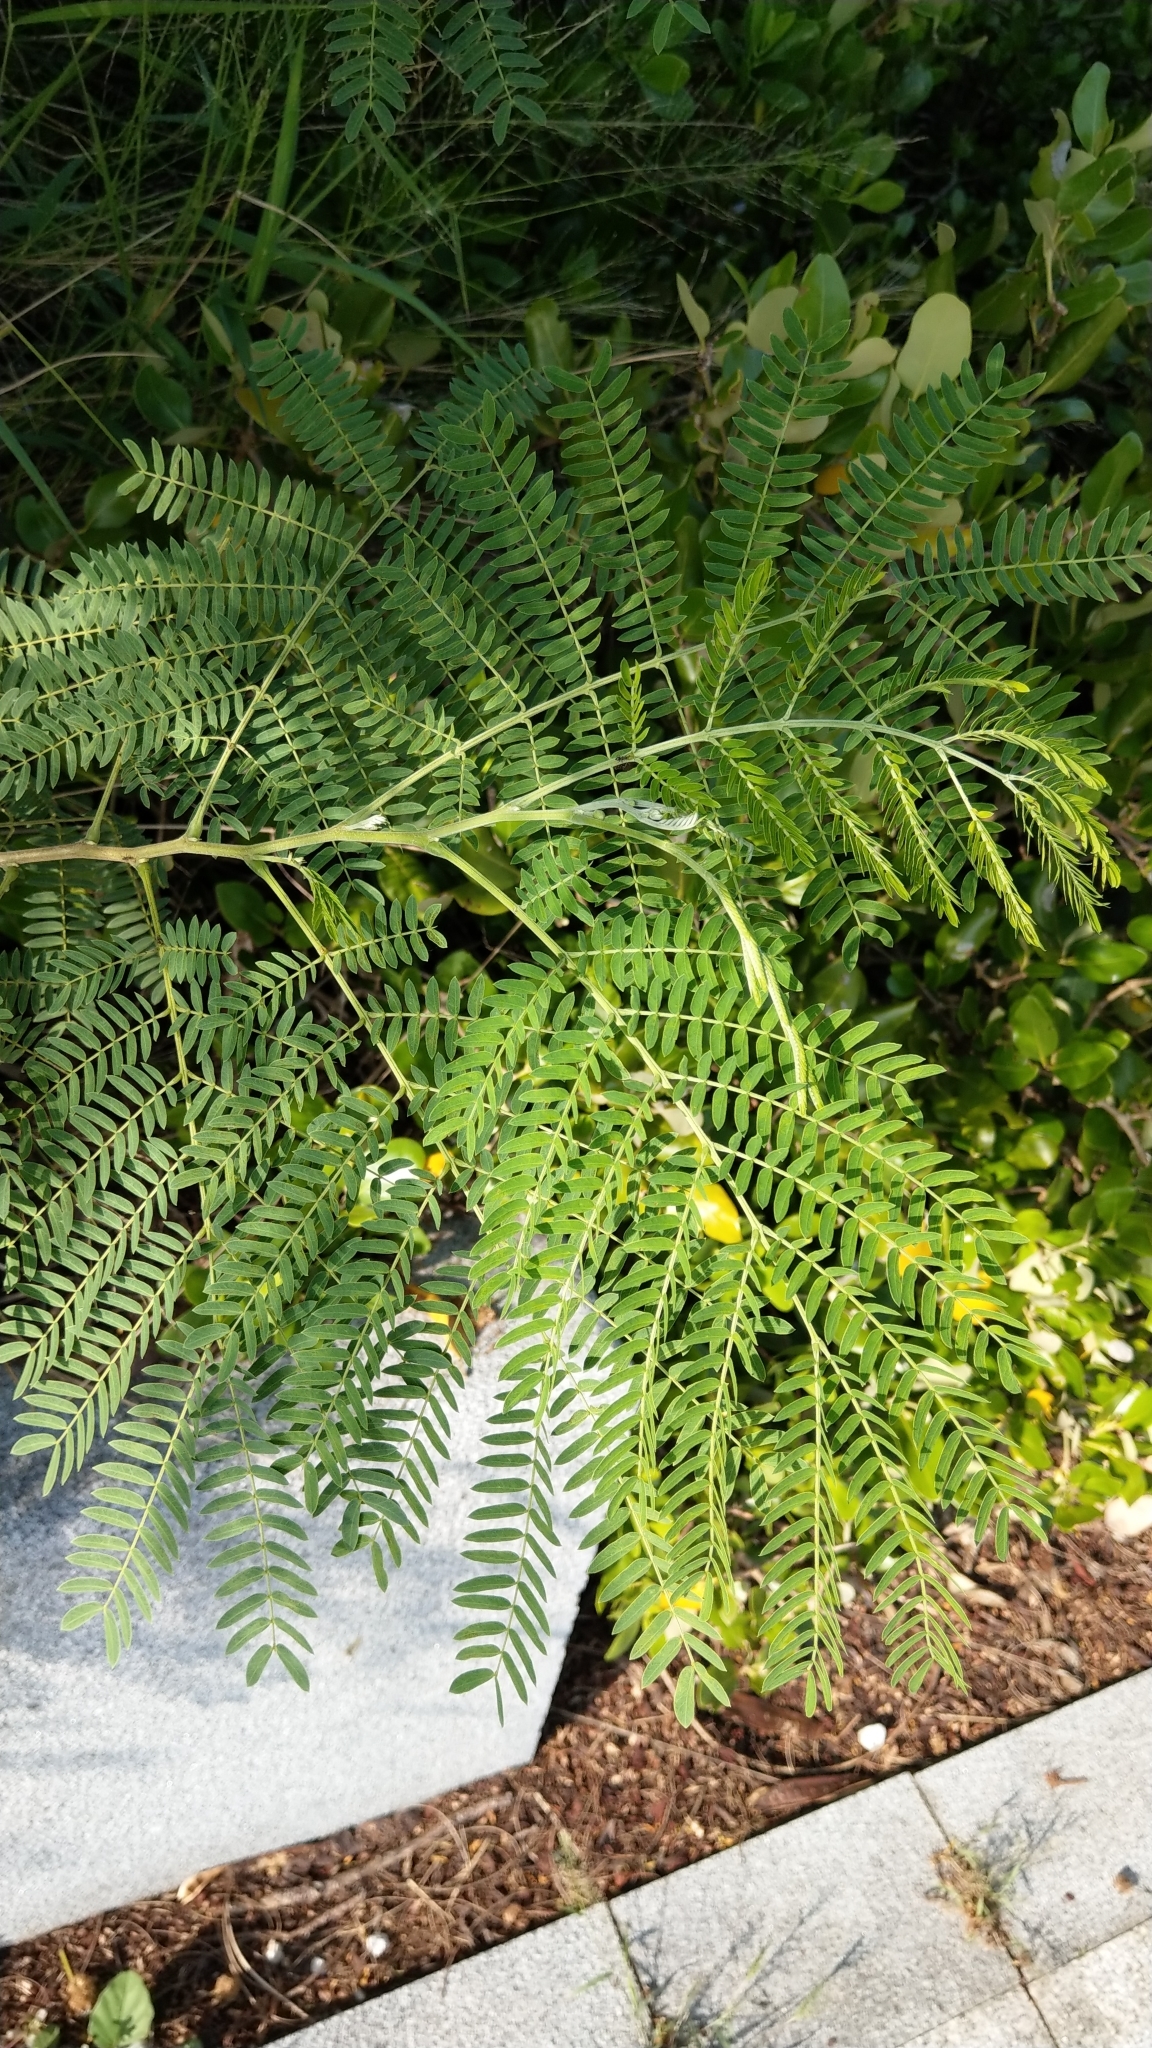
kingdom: Plantae
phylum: Tracheophyta
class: Magnoliopsida
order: Fabales
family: Fabaceae
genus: Leucaena
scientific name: Leucaena leucocephala
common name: White leadtree
